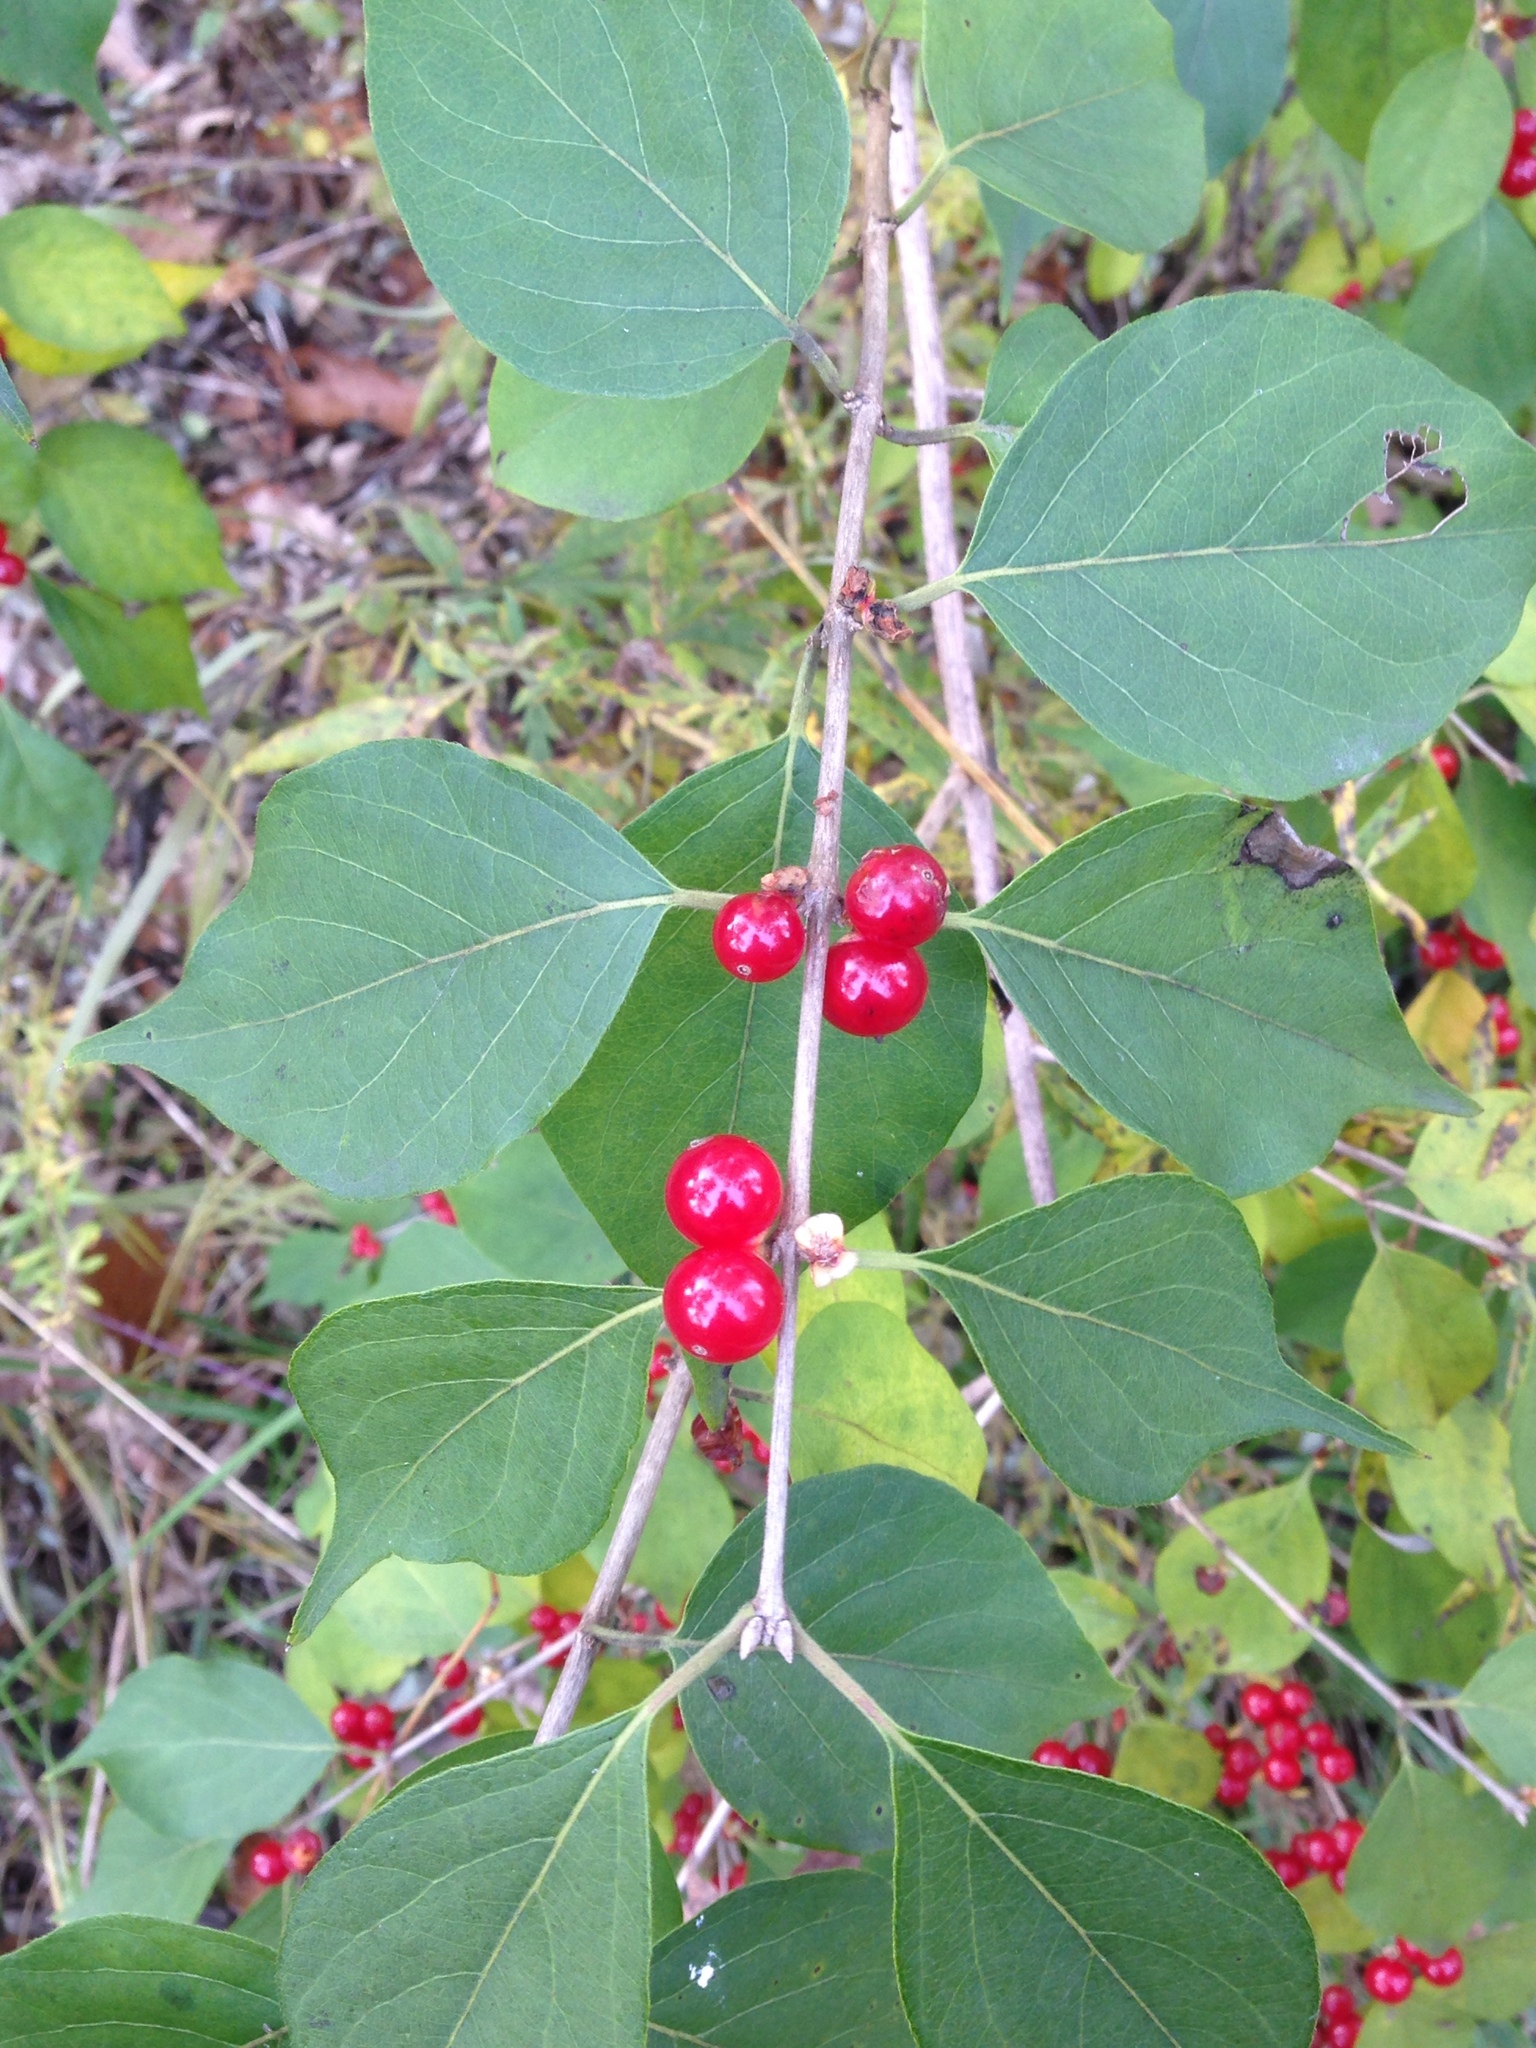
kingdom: Plantae
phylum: Tracheophyta
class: Magnoliopsida
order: Dipsacales
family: Caprifoliaceae
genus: Lonicera
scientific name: Lonicera maackii
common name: Amur honeysuckle
